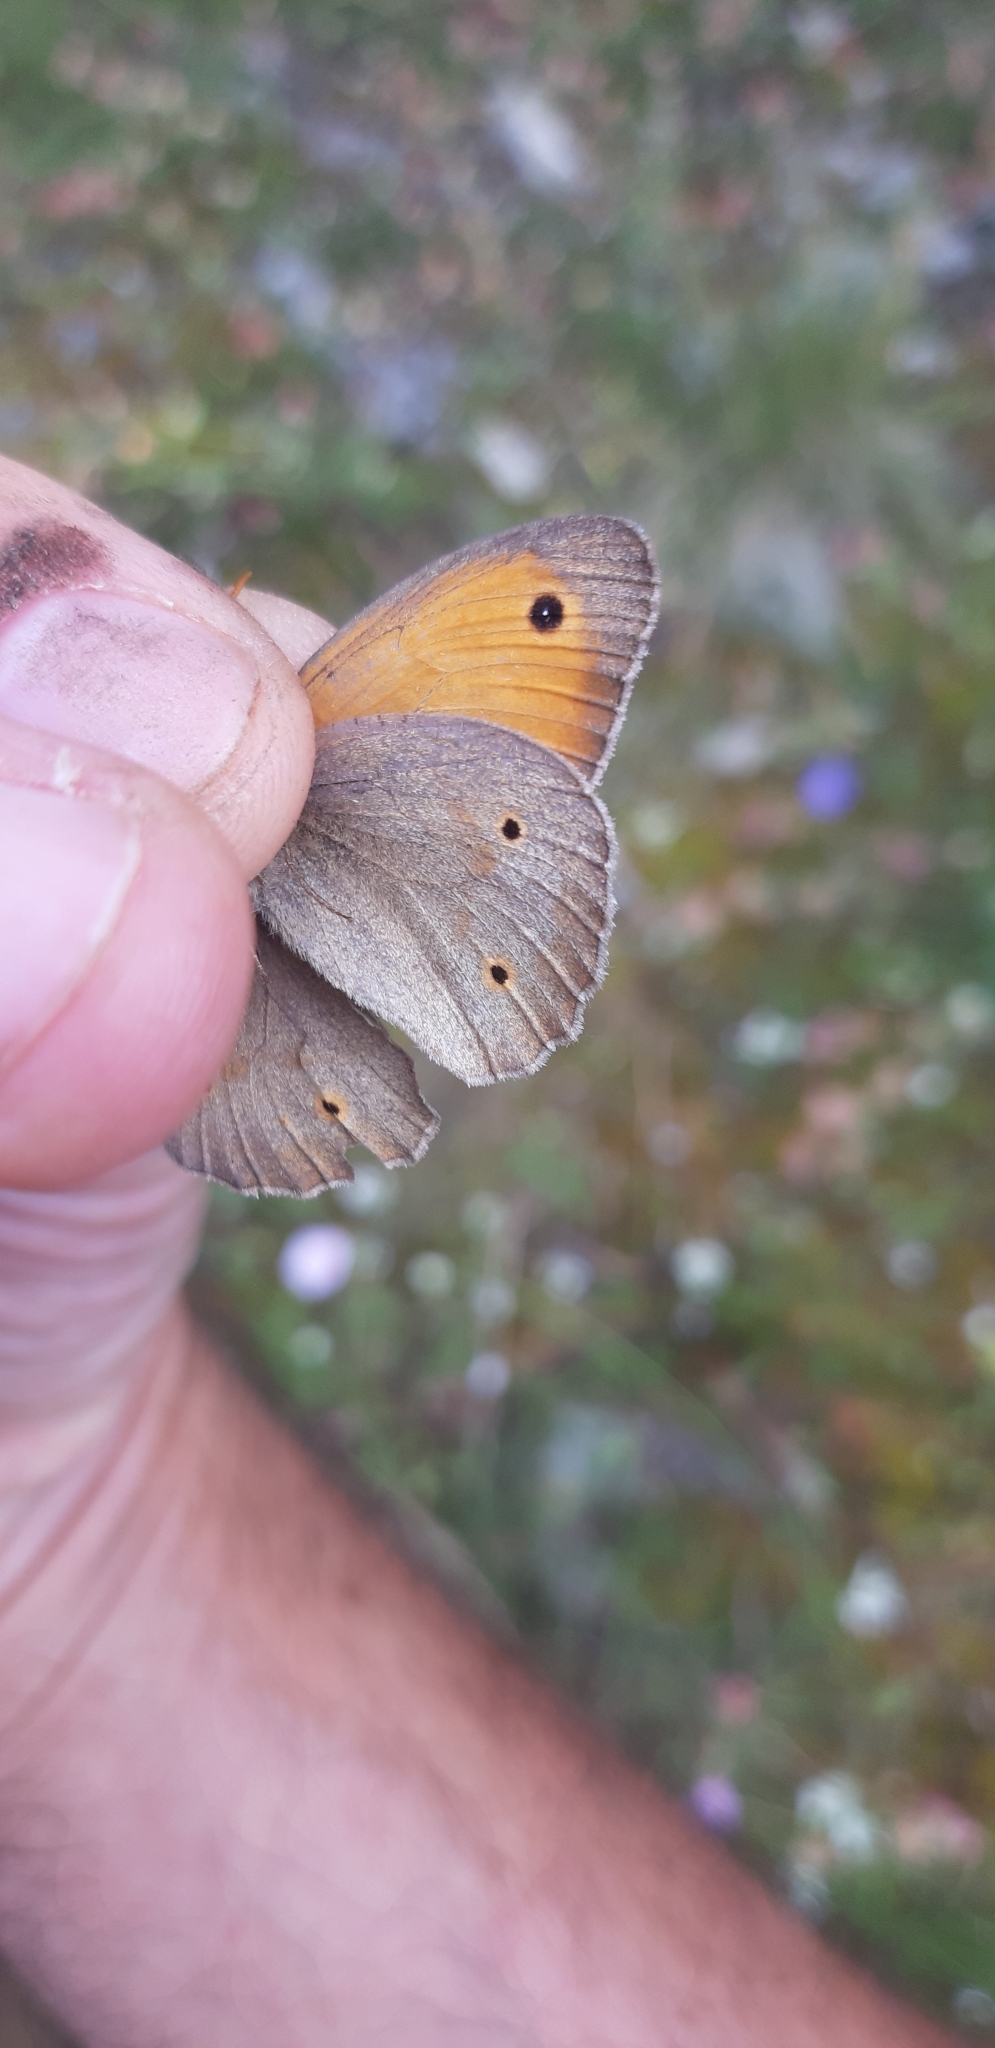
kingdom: Animalia
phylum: Arthropoda
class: Insecta
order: Lepidoptera
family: Nymphalidae
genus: Maniola
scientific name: Maniola jurtina
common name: Meadow brown
